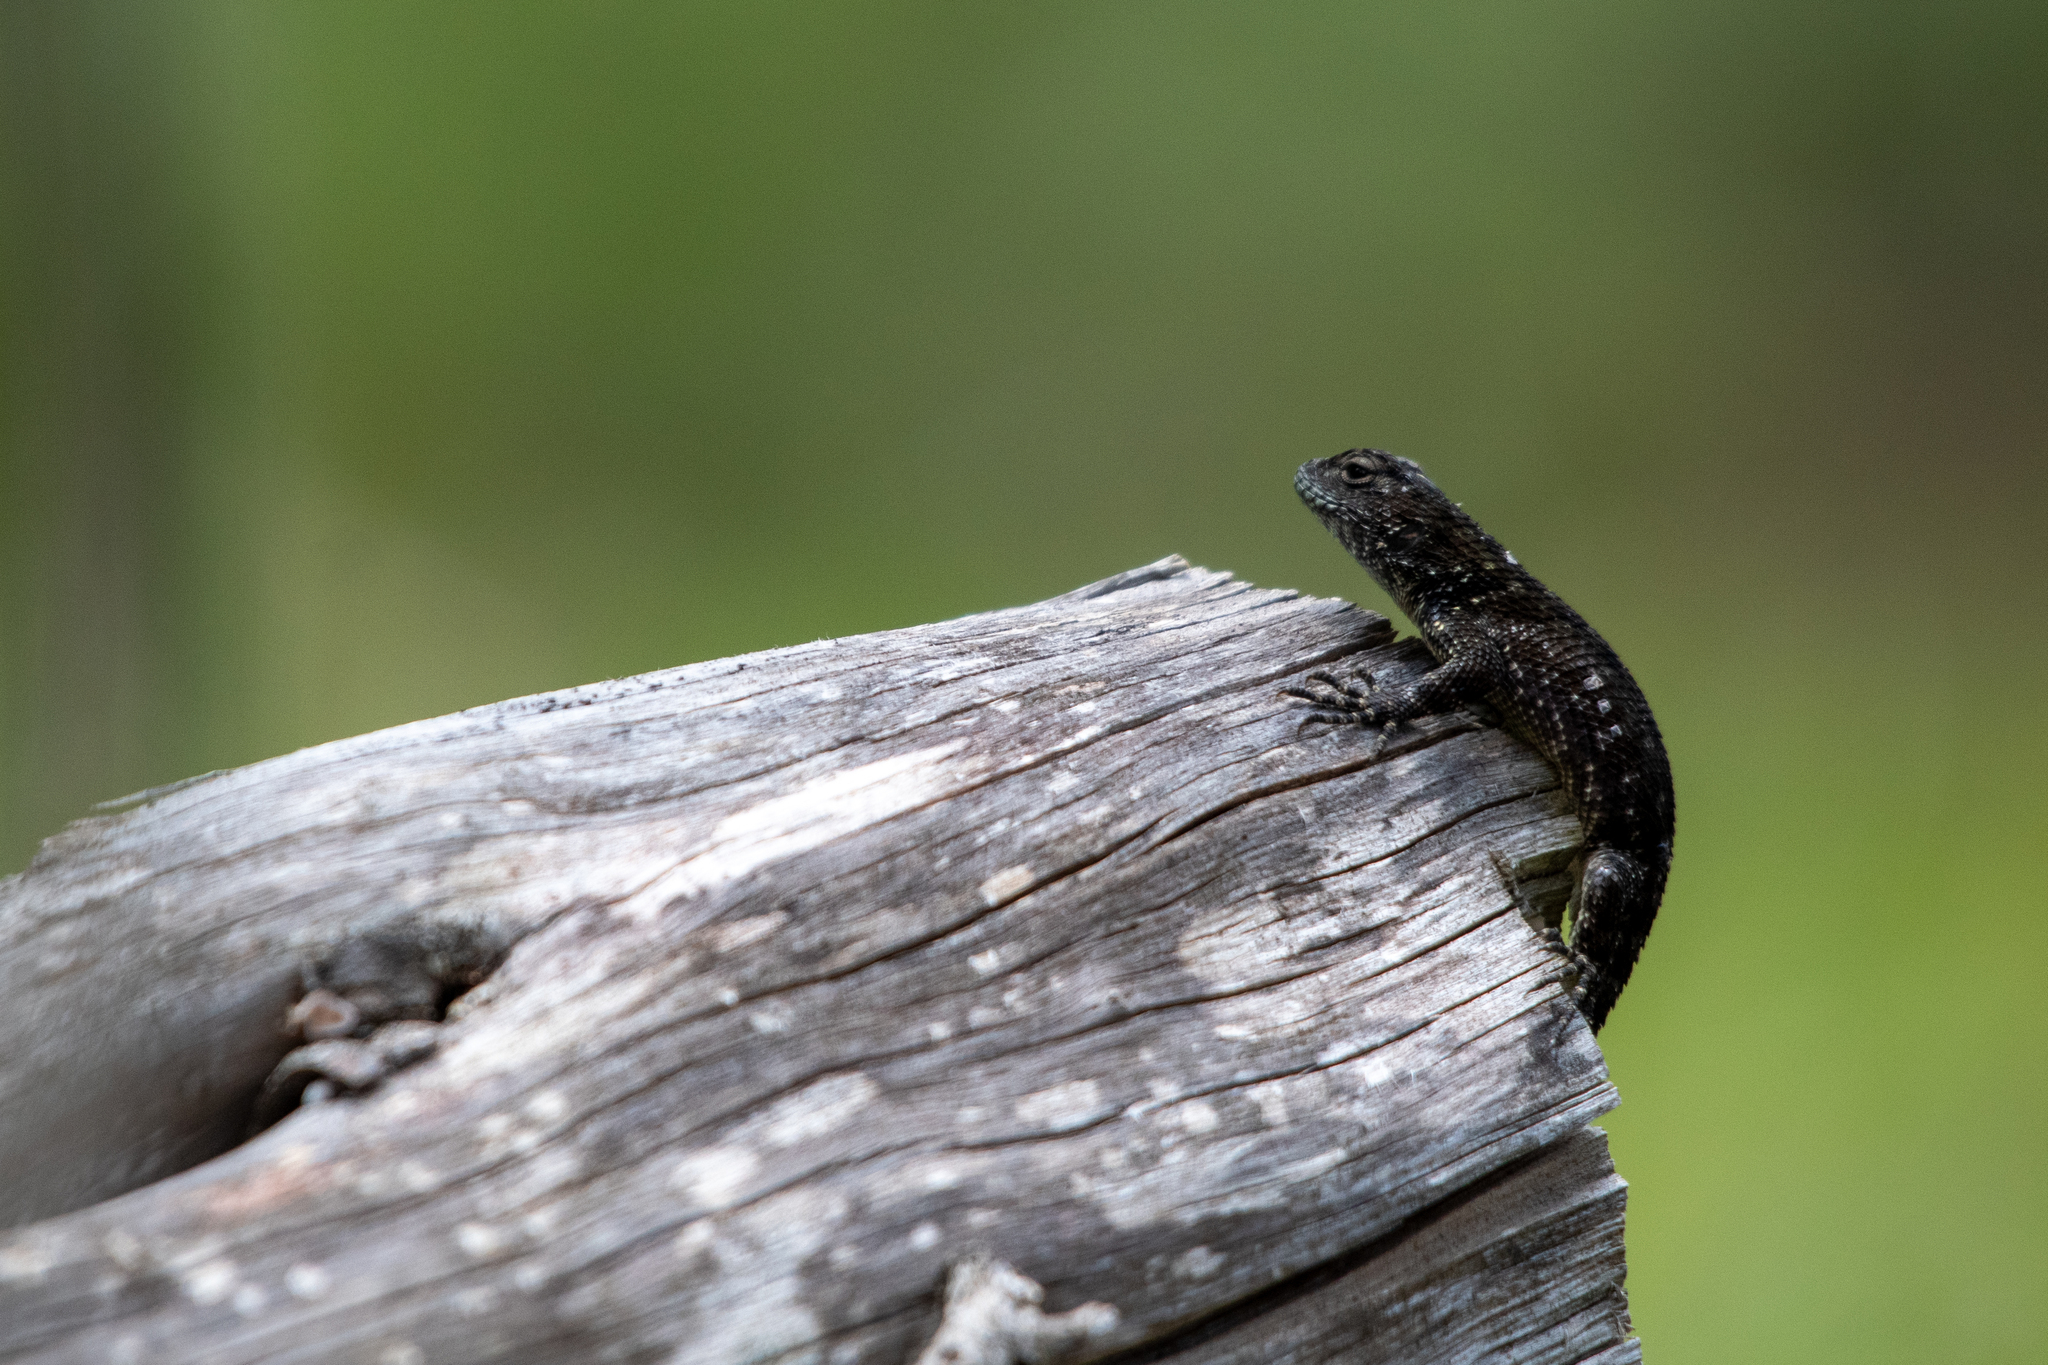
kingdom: Animalia
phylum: Chordata
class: Squamata
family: Phrynosomatidae
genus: Sceloporus
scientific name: Sceloporus esperanzae
